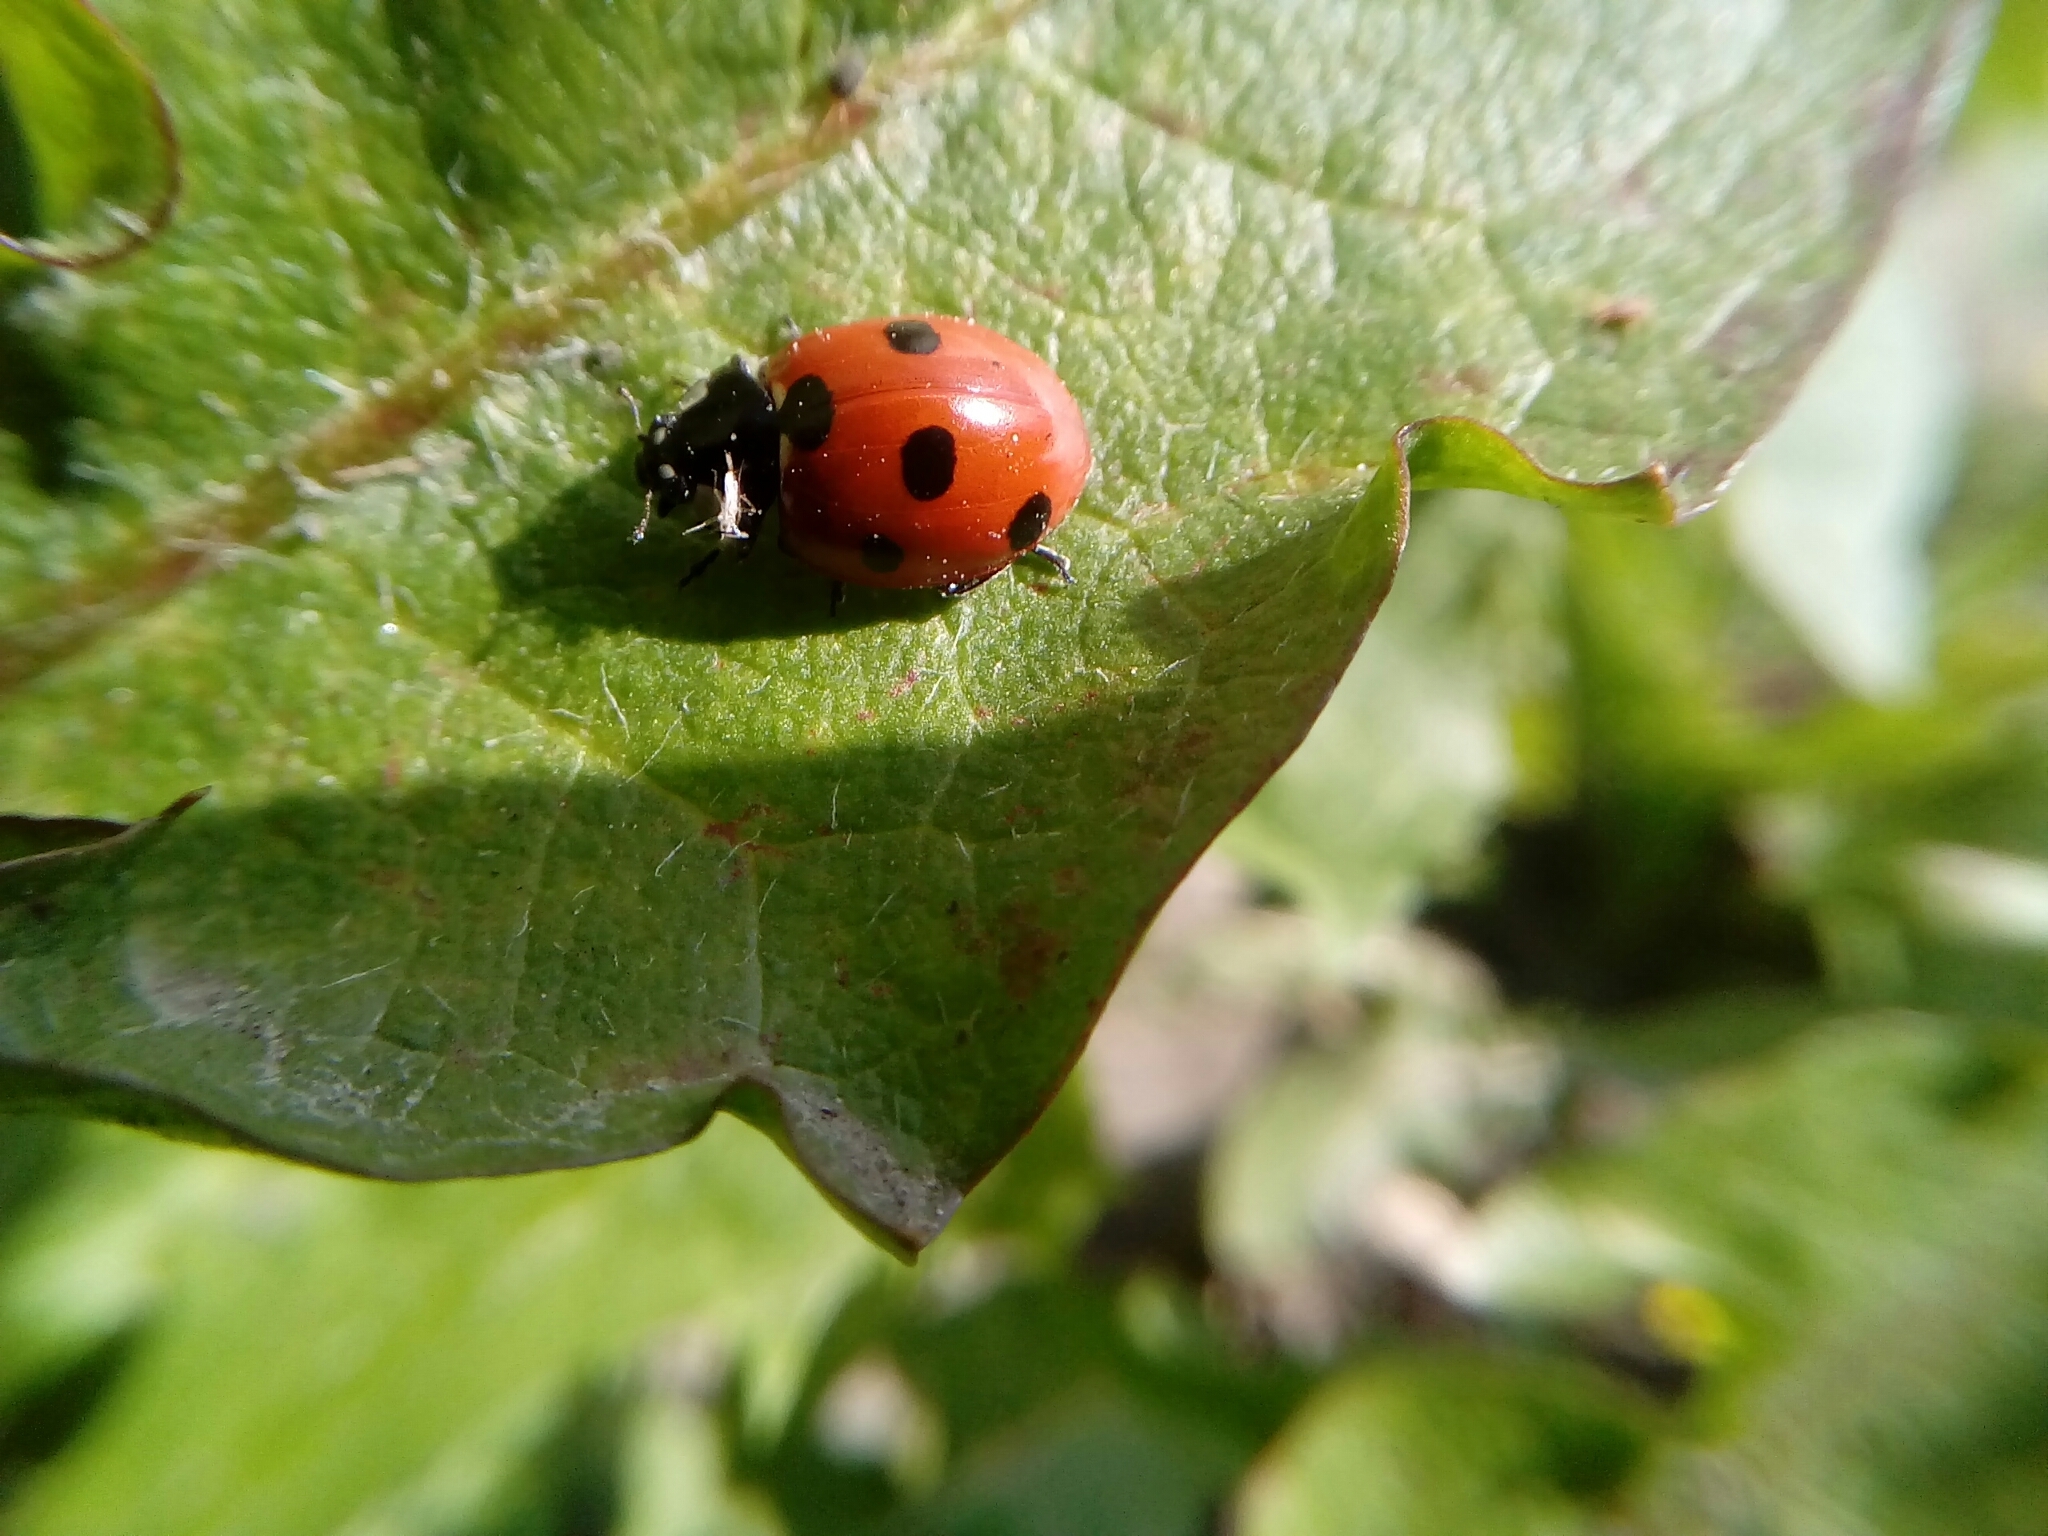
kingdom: Animalia
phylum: Arthropoda
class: Insecta
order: Coleoptera
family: Coccinellidae
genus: Coccinella
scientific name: Coccinella septempunctata
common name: Sevenspotted lady beetle
